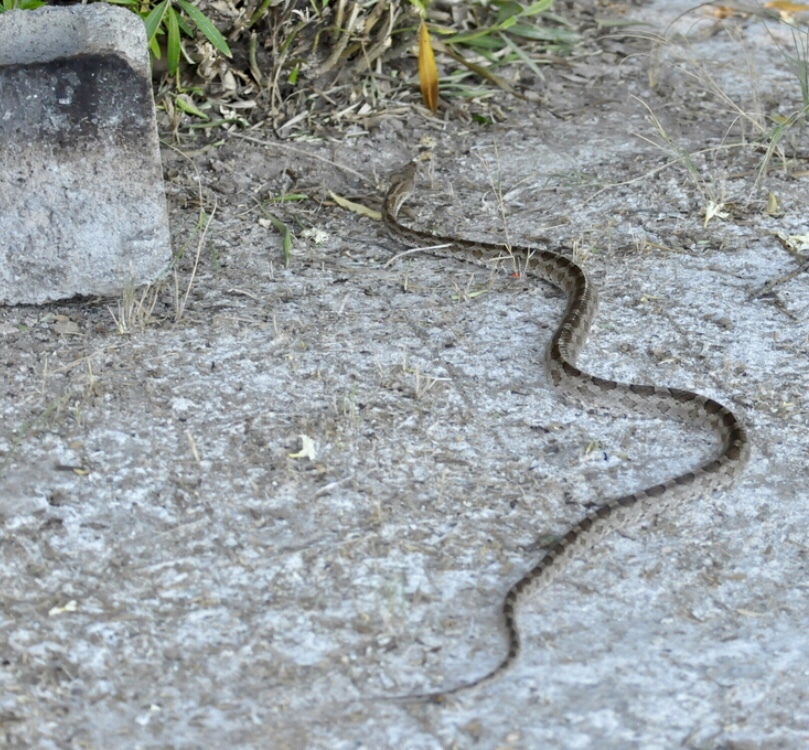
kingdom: Animalia
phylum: Chordata
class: Squamata
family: Colubridae
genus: Pantherophis
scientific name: Pantherophis emoryi
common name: Great plains rat snake
